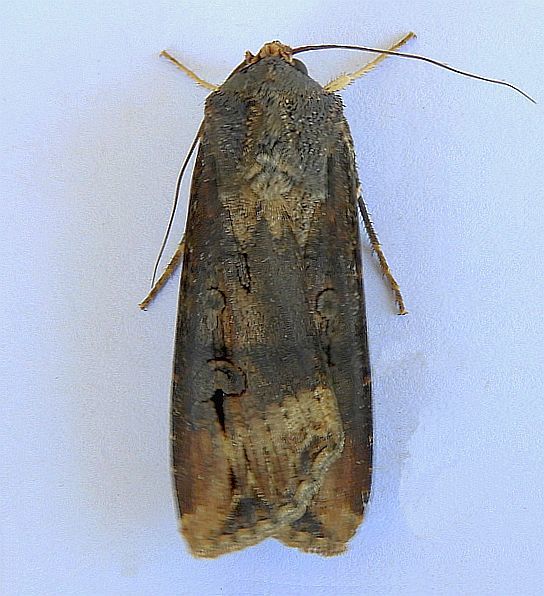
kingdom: Animalia
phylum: Arthropoda
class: Insecta
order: Lepidoptera
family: Noctuidae
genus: Agrotis
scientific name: Agrotis ipsilon
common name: Dark sword-grass
